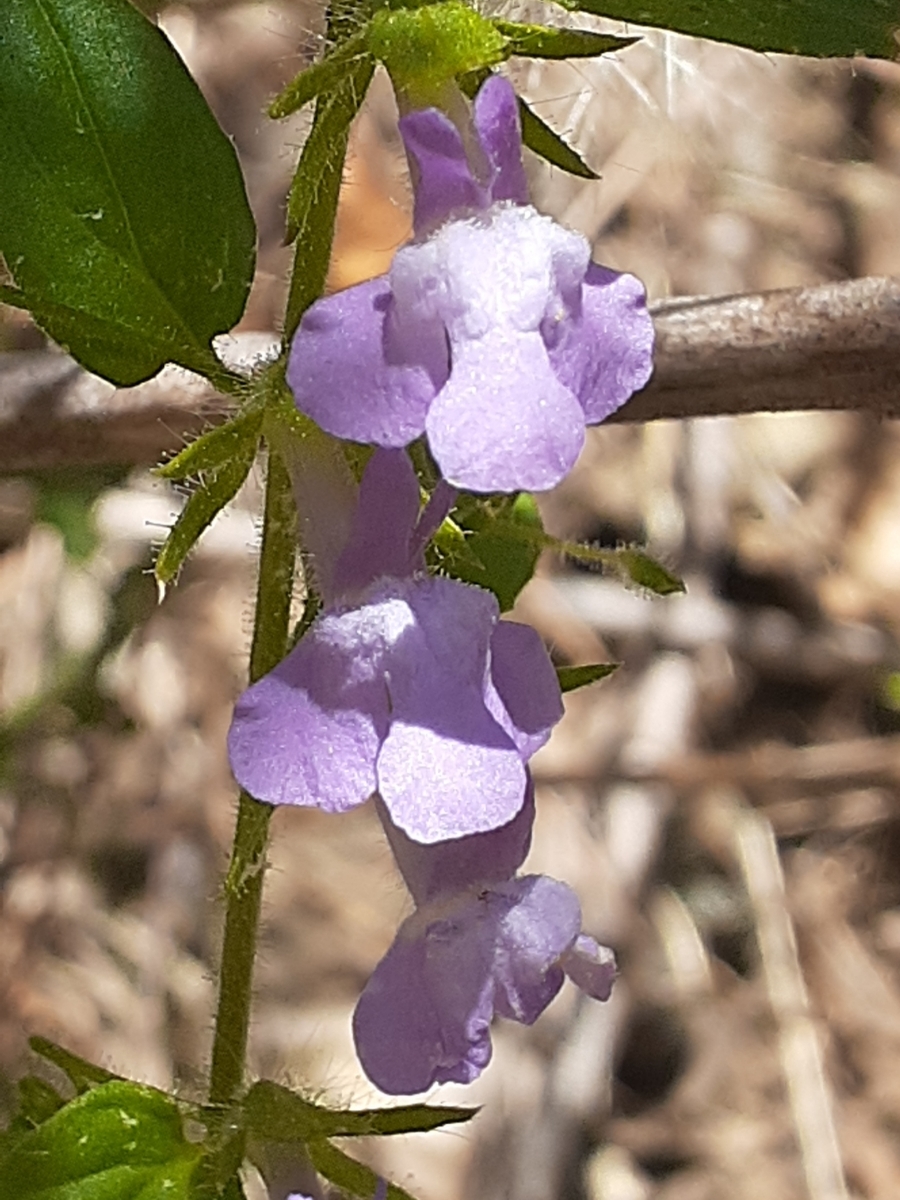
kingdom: Plantae
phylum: Tracheophyta
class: Magnoliopsida
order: Lamiales
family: Plantaginaceae
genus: Sairocarpus
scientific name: Sairocarpus vexillocalyculatus
